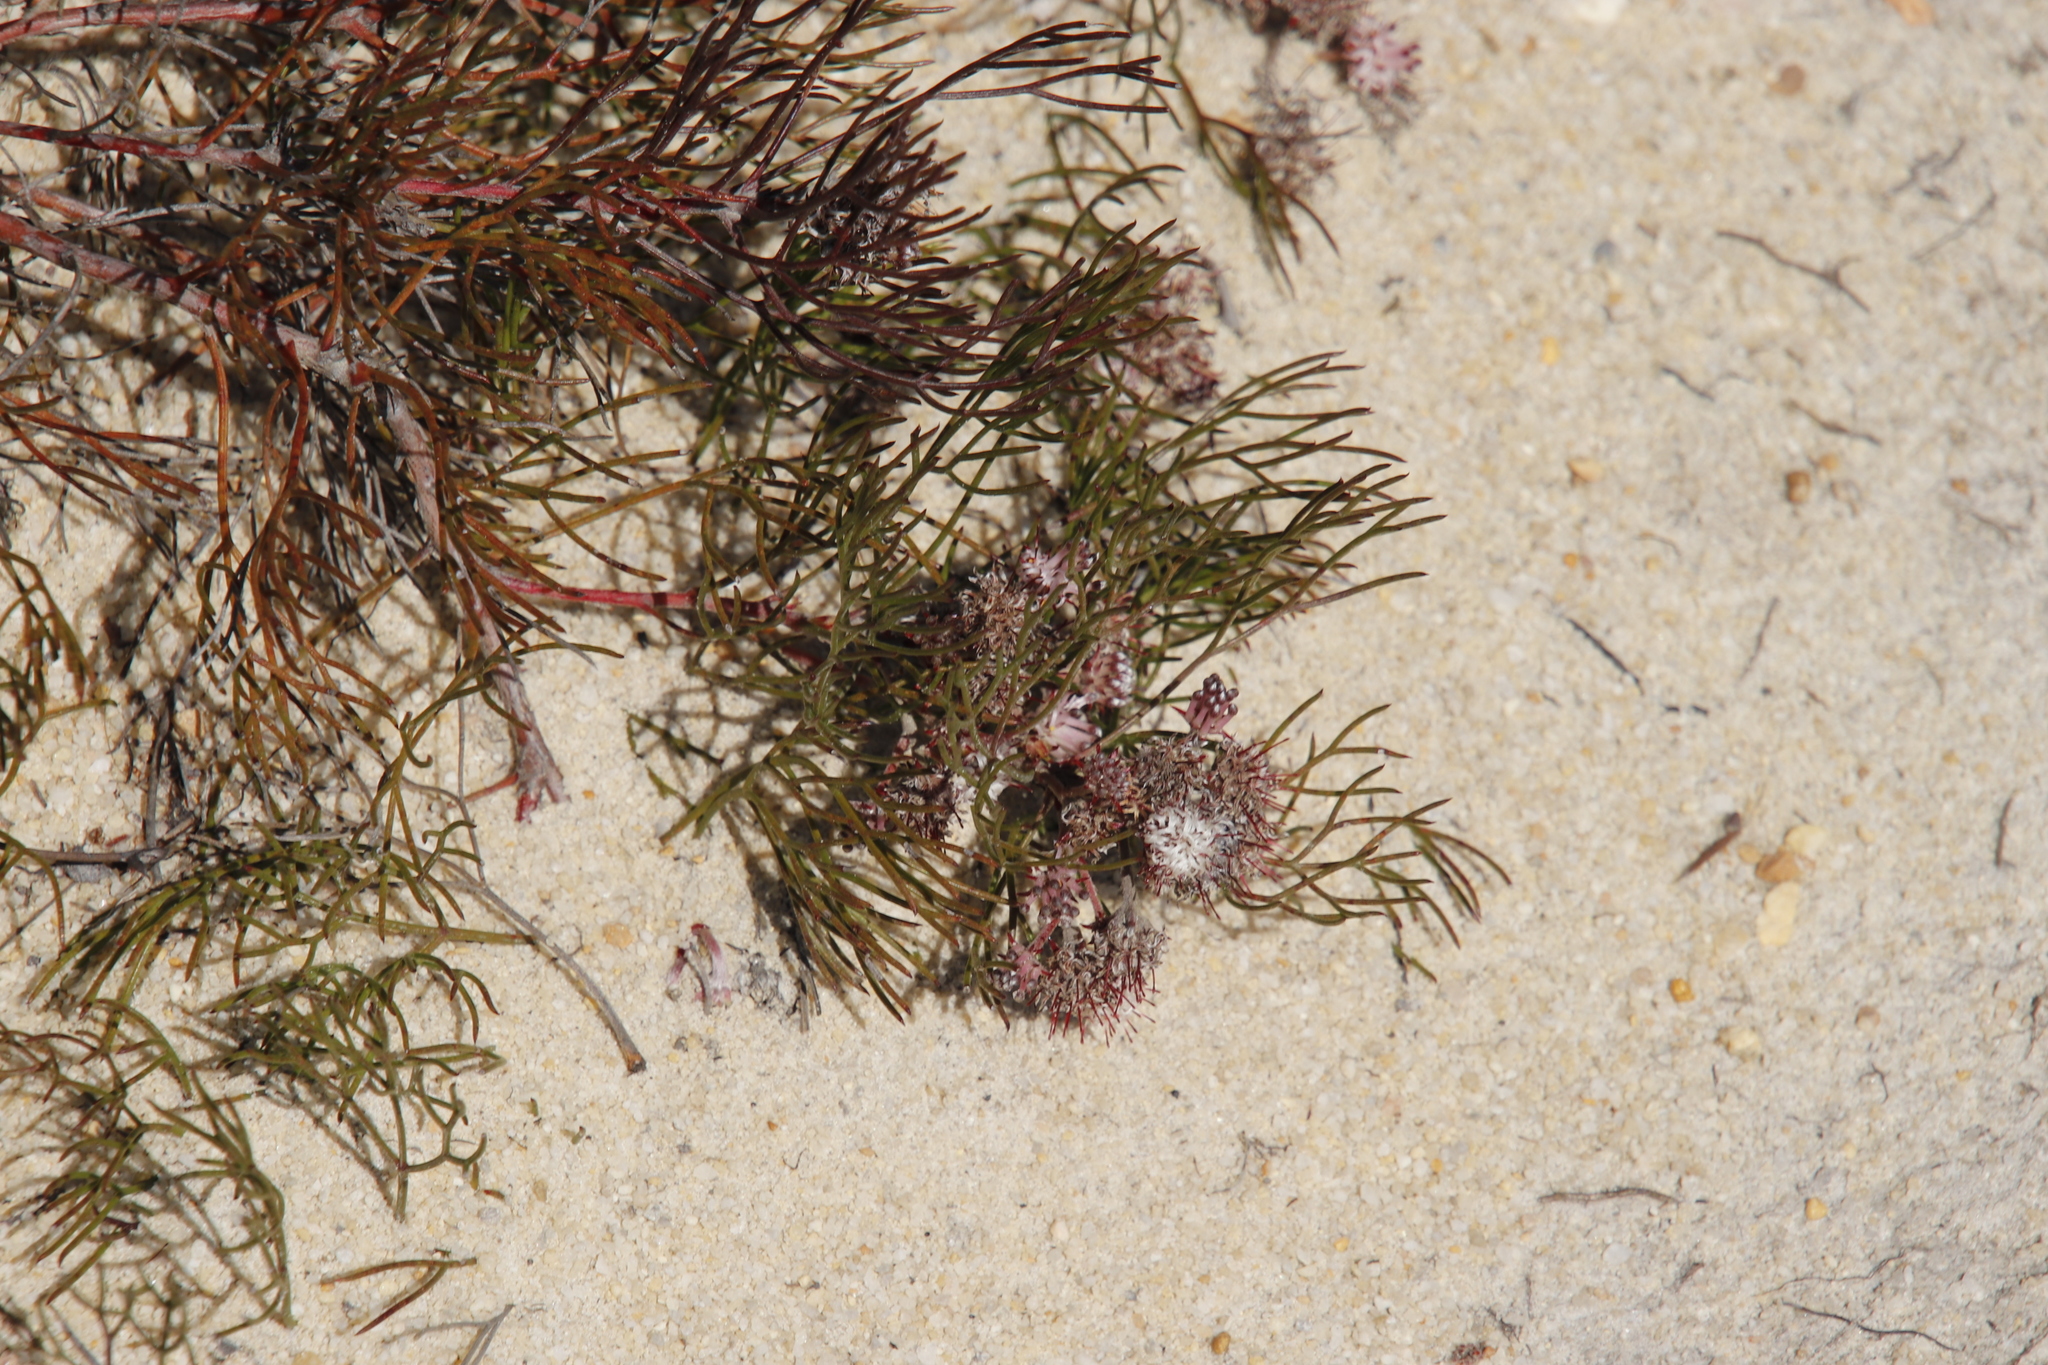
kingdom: Plantae
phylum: Tracheophyta
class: Magnoliopsida
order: Proteales
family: Proteaceae
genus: Serruria
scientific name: Serruria fasciflora
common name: Common pin spiderhead
